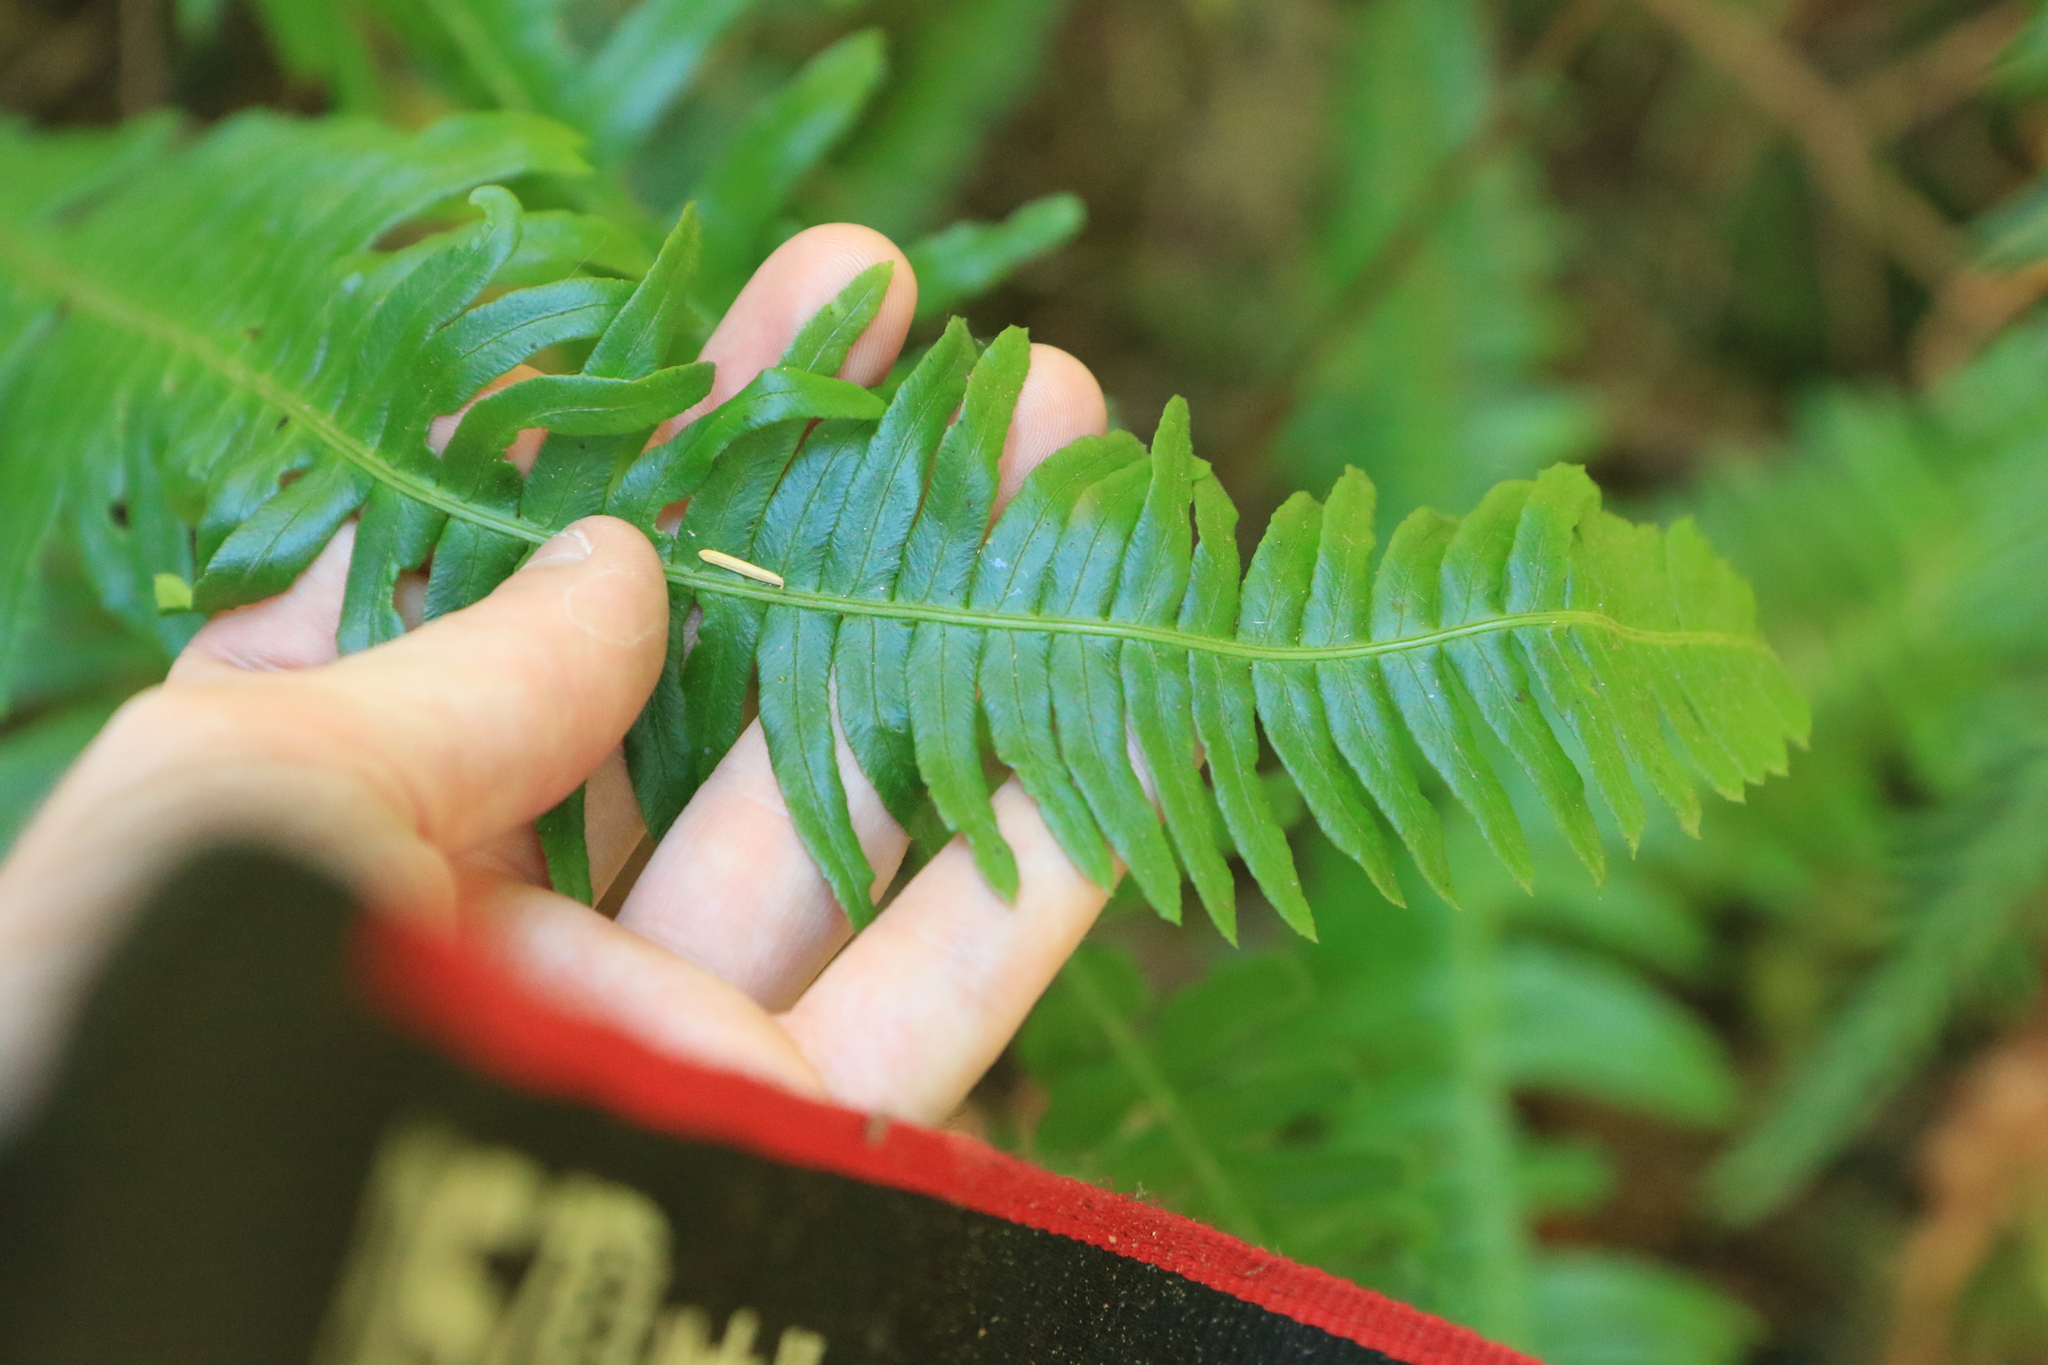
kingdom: Plantae
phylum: Tracheophyta
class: Polypodiopsida
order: Polypodiales
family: Blechnaceae
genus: Struthiopteris
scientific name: Struthiopteris spicant
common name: Deer fern
